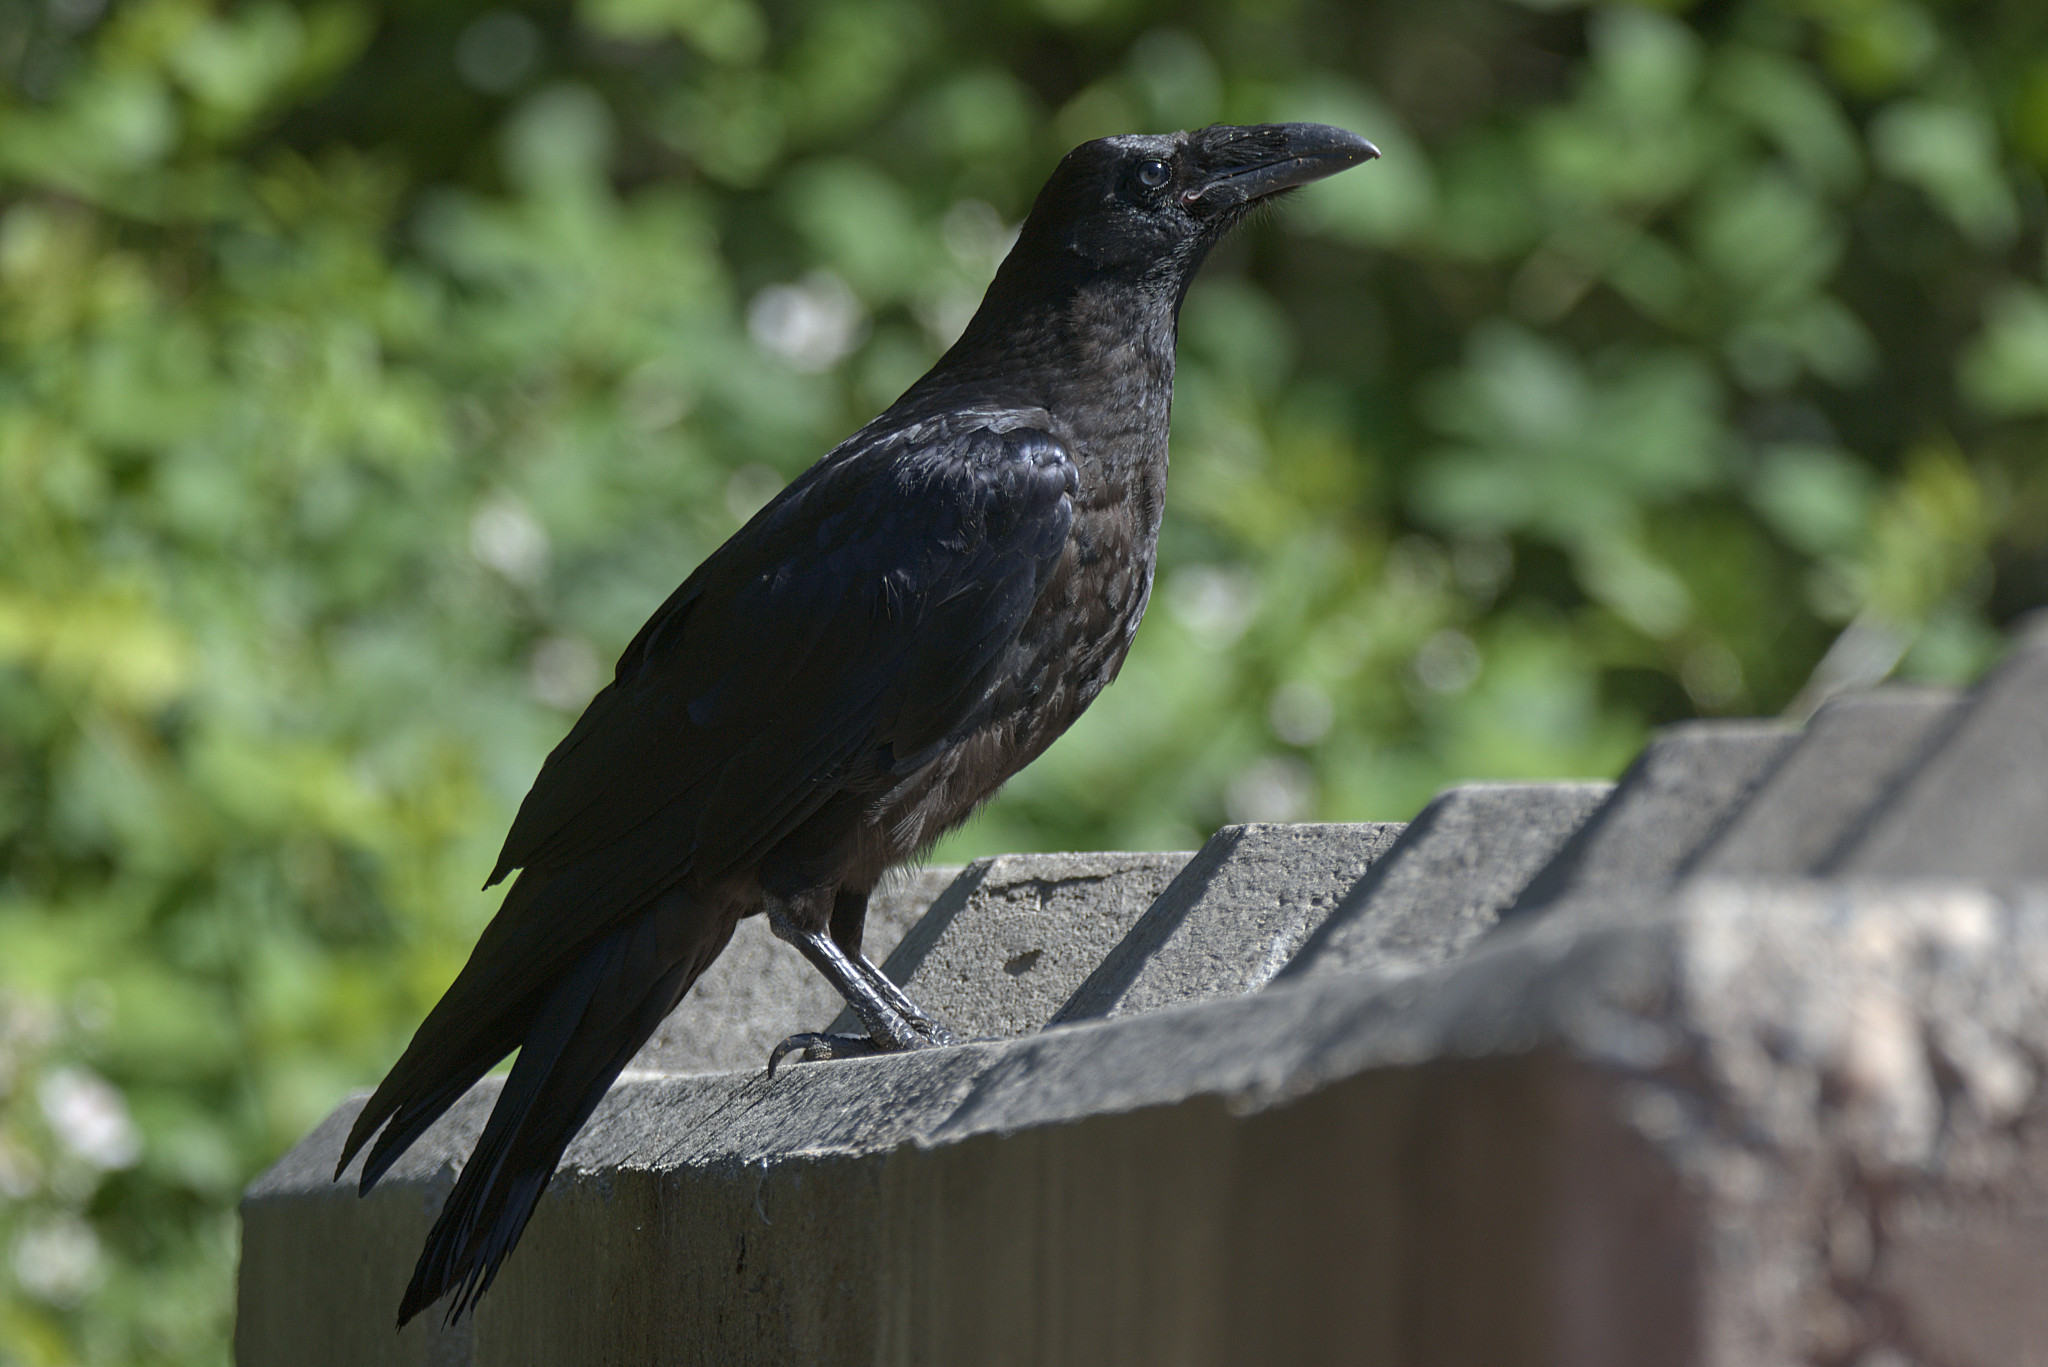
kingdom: Animalia
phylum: Chordata
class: Aves
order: Passeriformes
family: Corvidae
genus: Corvus
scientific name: Corvus corax
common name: Common raven
